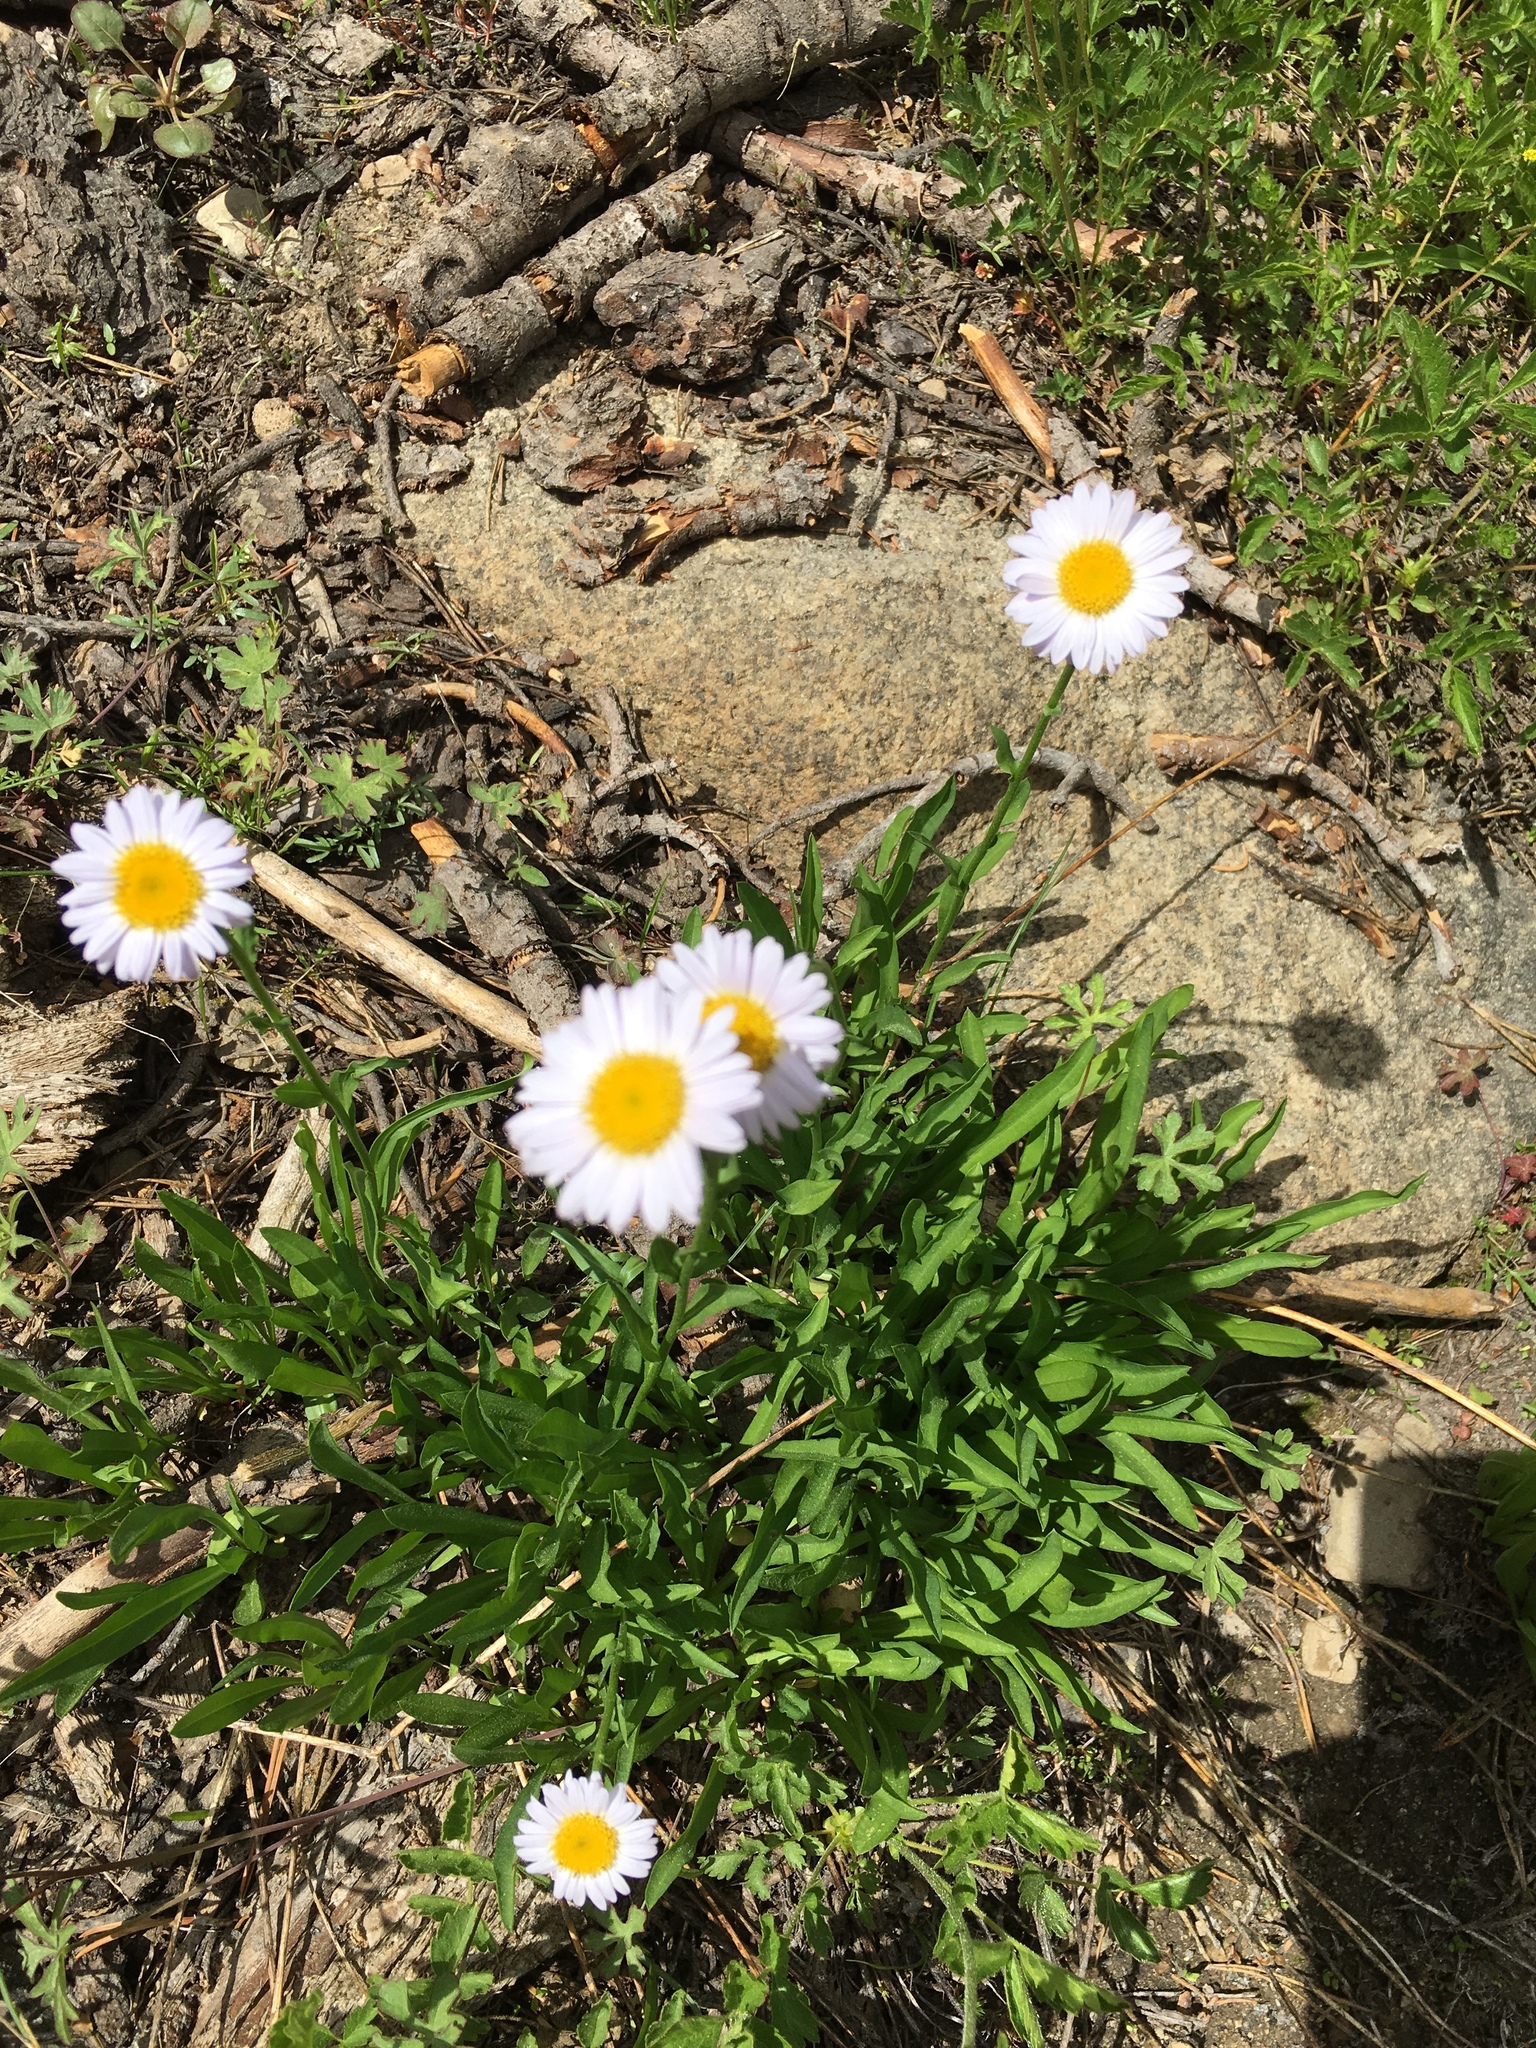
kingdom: Plantae
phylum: Tracheophyta
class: Magnoliopsida
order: Asterales
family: Asteraceae
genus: Erigeron
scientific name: Erigeron glacialis
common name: Subalpine fleabane
